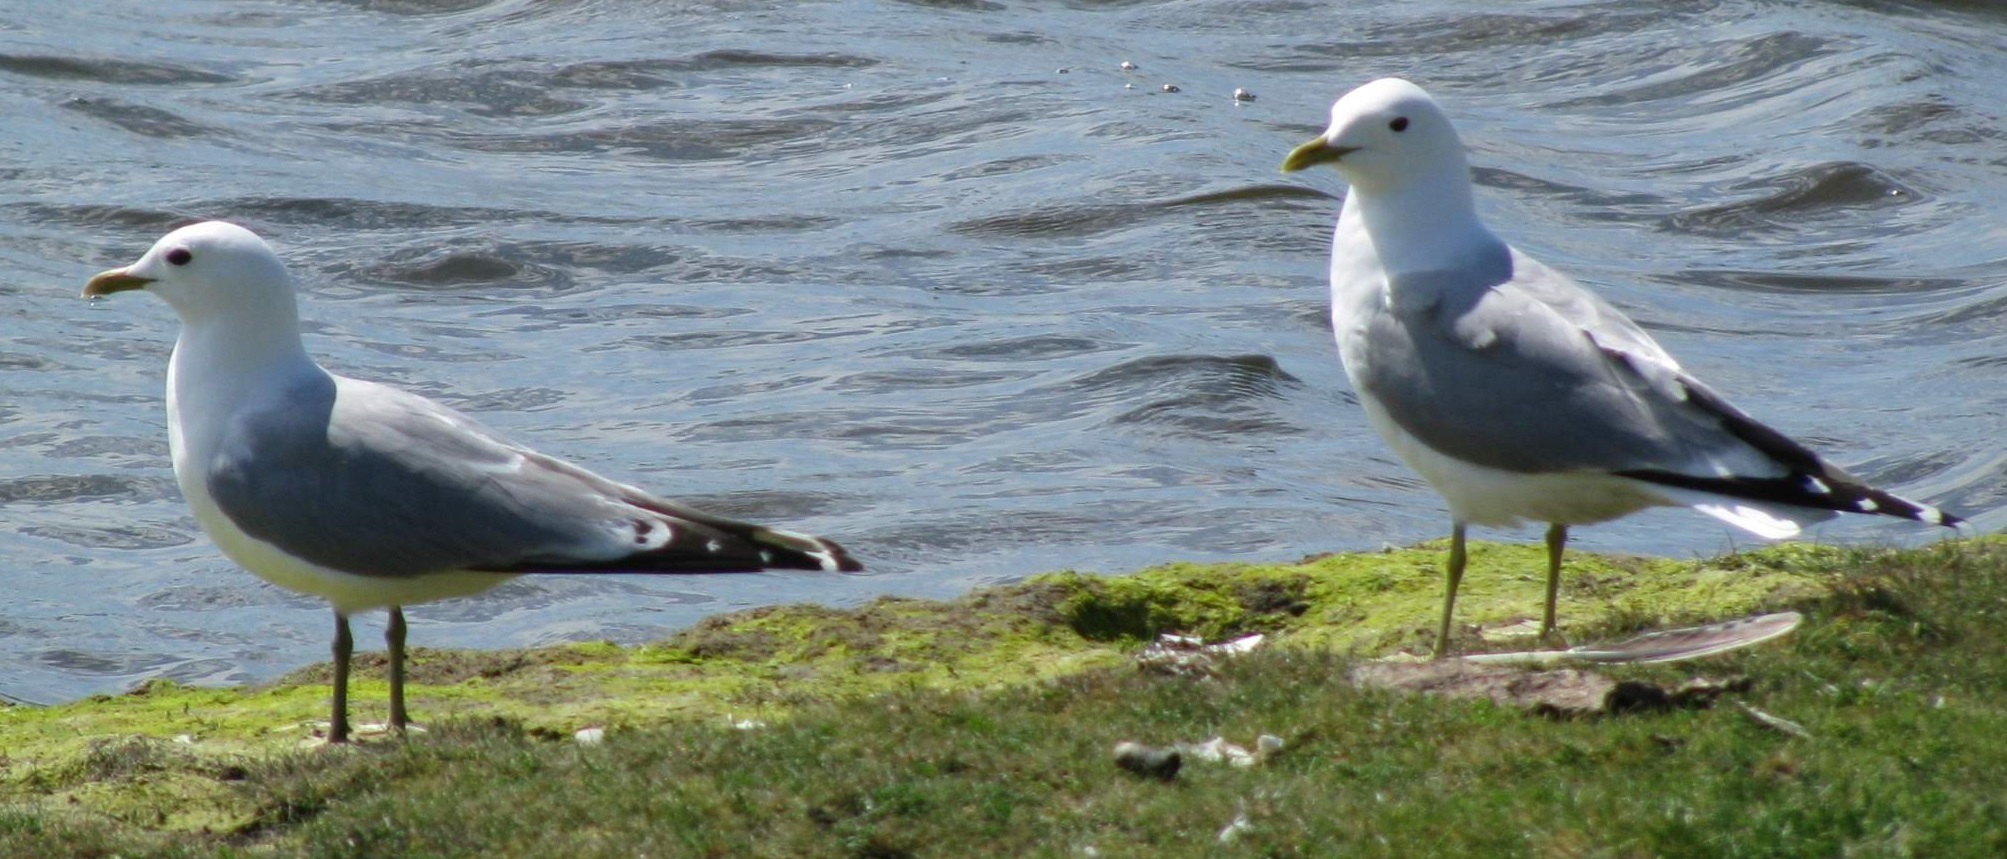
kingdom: Animalia
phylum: Chordata
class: Aves
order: Charadriiformes
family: Laridae
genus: Larus
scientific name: Larus canus
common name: Mew gull
